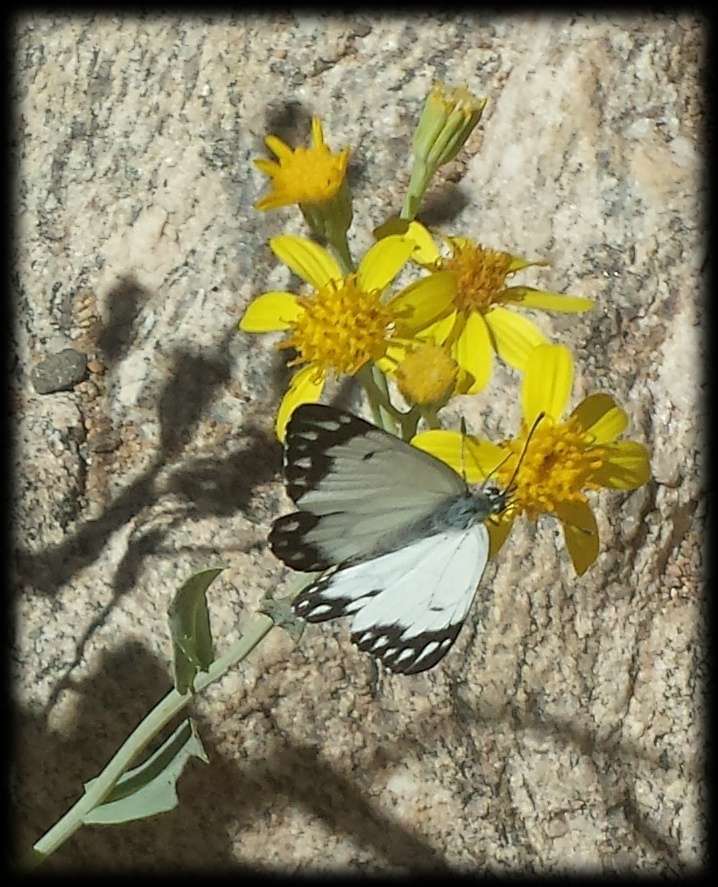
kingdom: Animalia
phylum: Arthropoda
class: Insecta
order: Lepidoptera
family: Pieridae
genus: Belenois
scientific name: Belenois java
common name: Caper white
